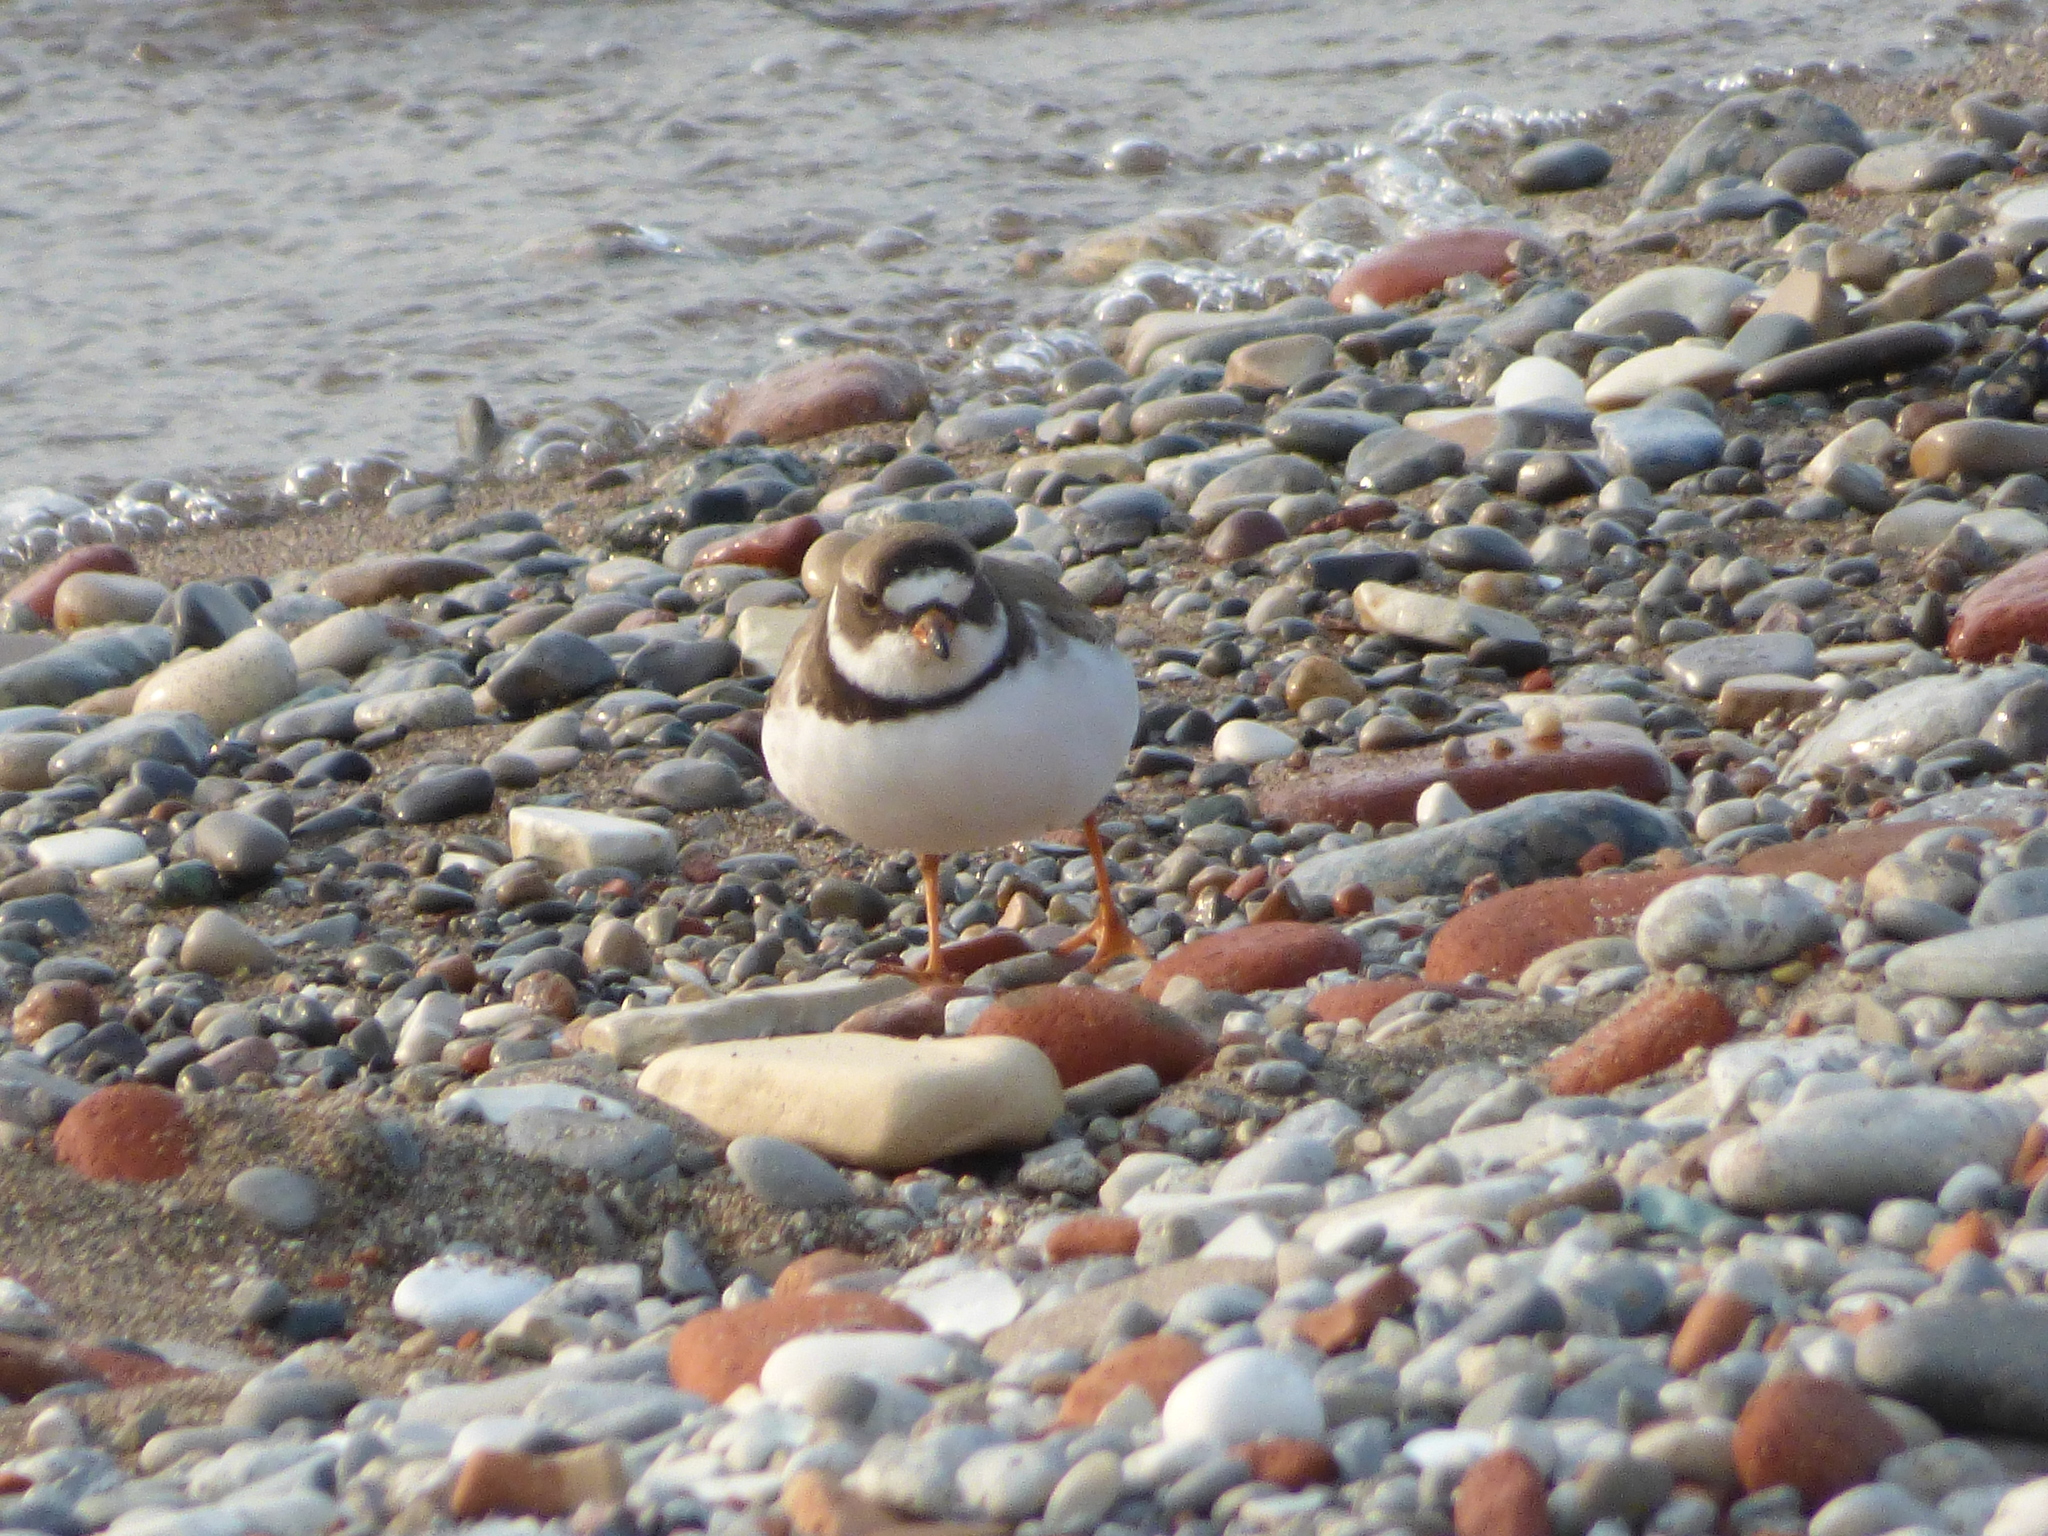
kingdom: Animalia
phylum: Chordata
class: Aves
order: Charadriiformes
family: Charadriidae
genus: Charadrius
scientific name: Charadrius semipalmatus
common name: Semipalmated plover
